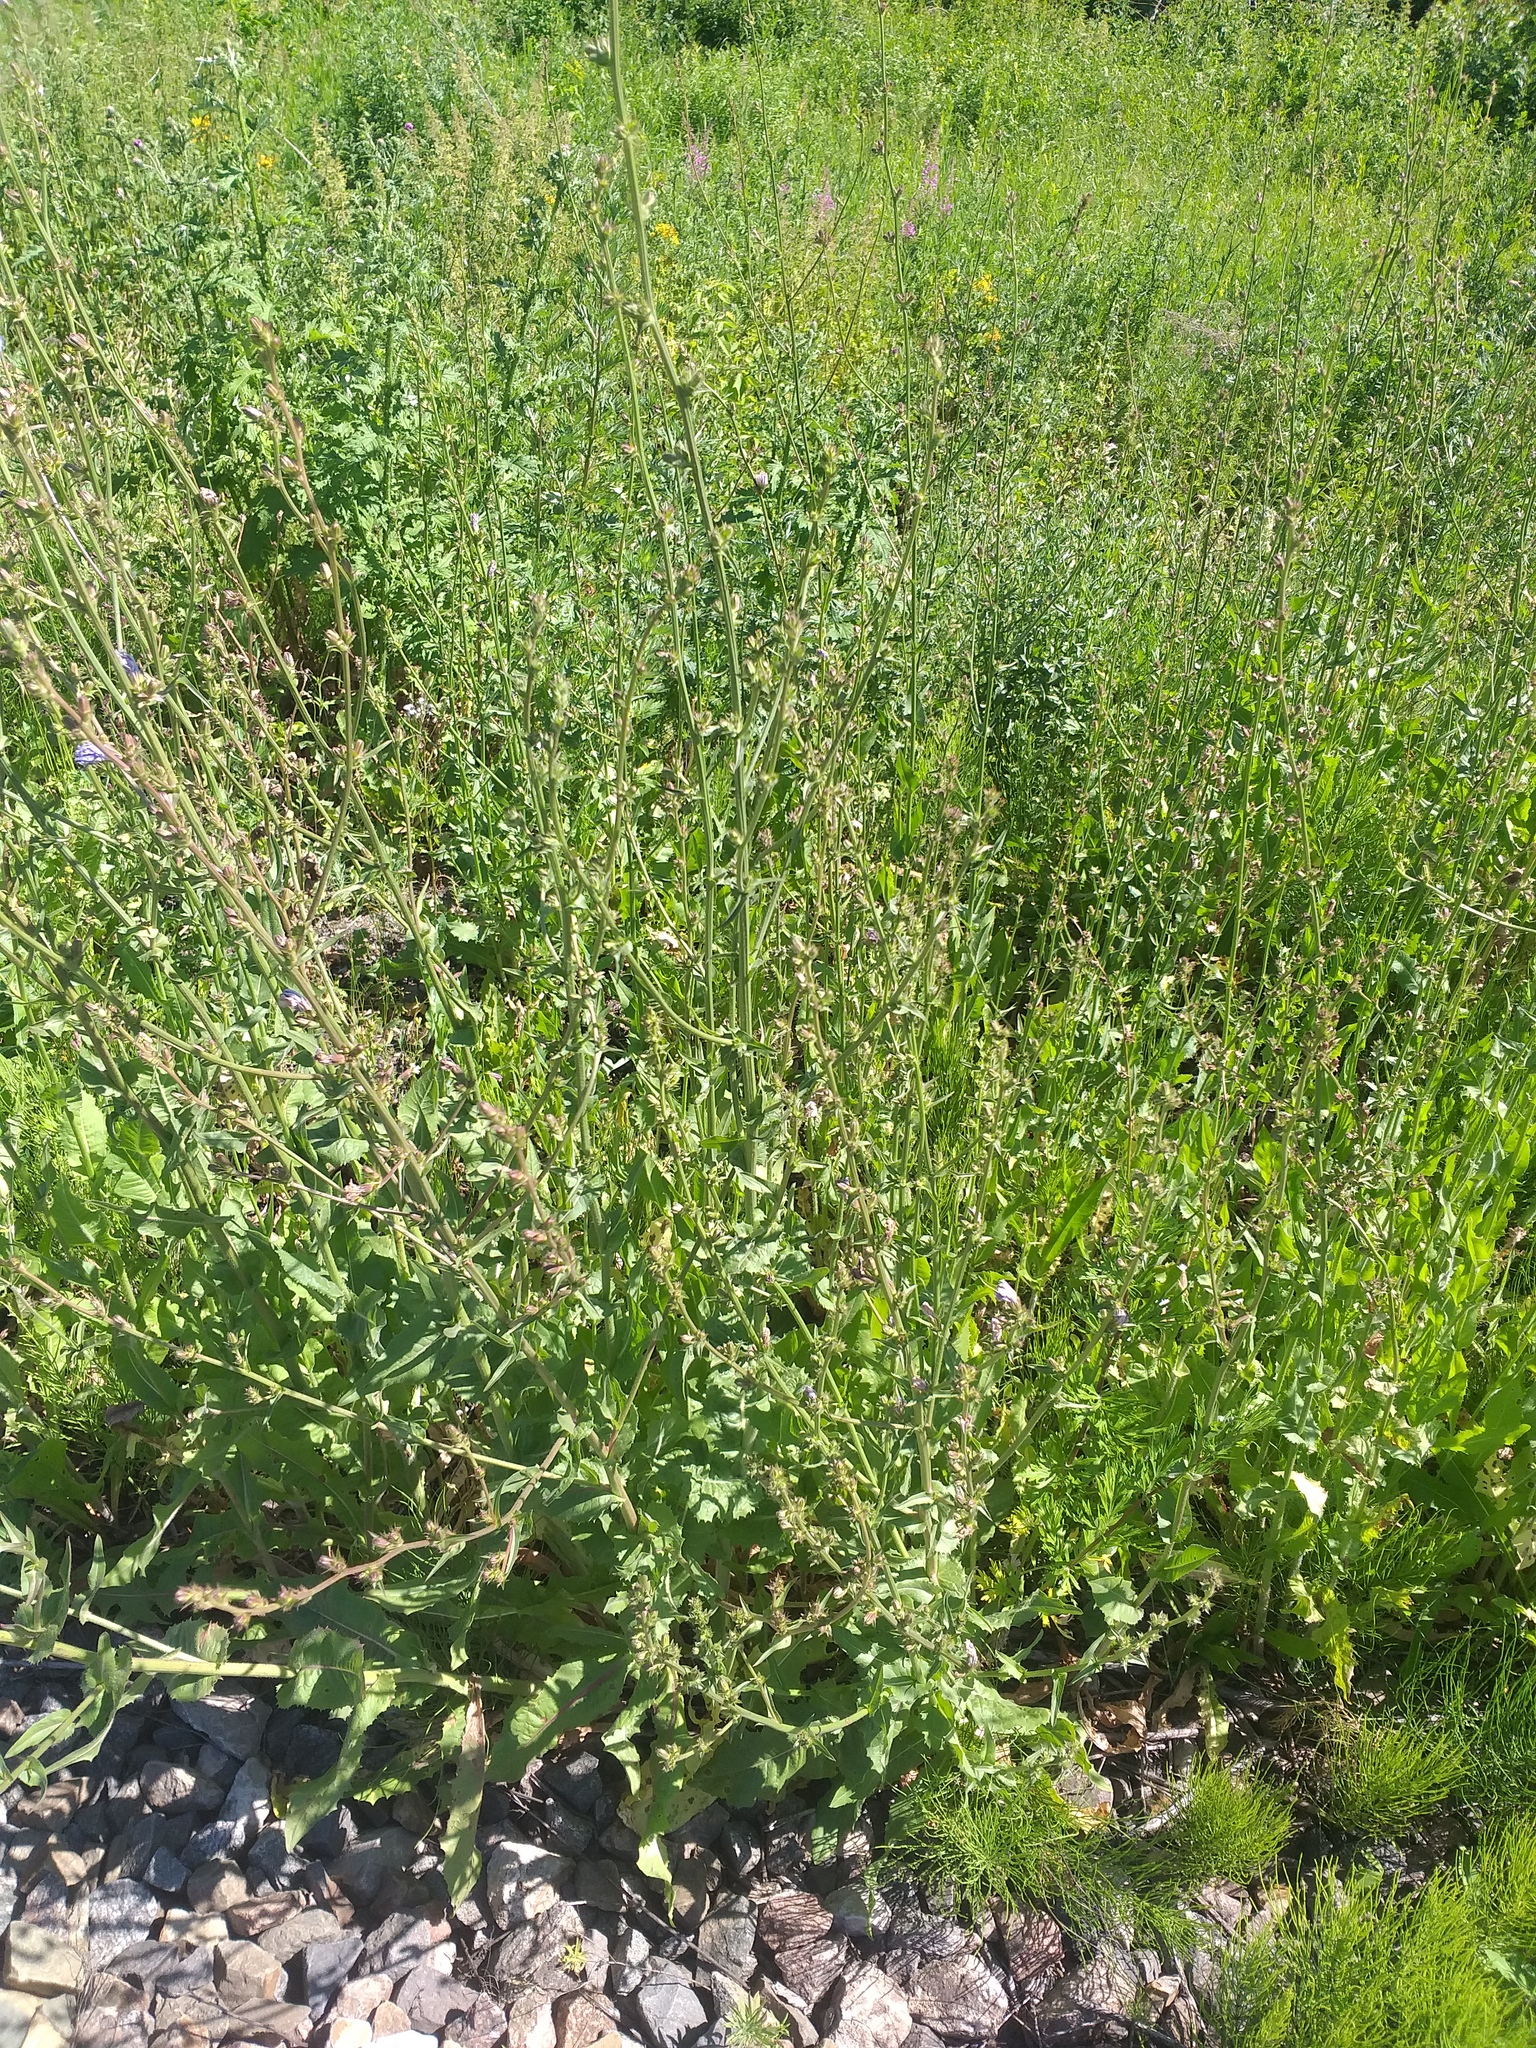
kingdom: Plantae
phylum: Tracheophyta
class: Magnoliopsida
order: Asterales
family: Asteraceae
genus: Cichorium
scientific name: Cichorium intybus
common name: Chicory
